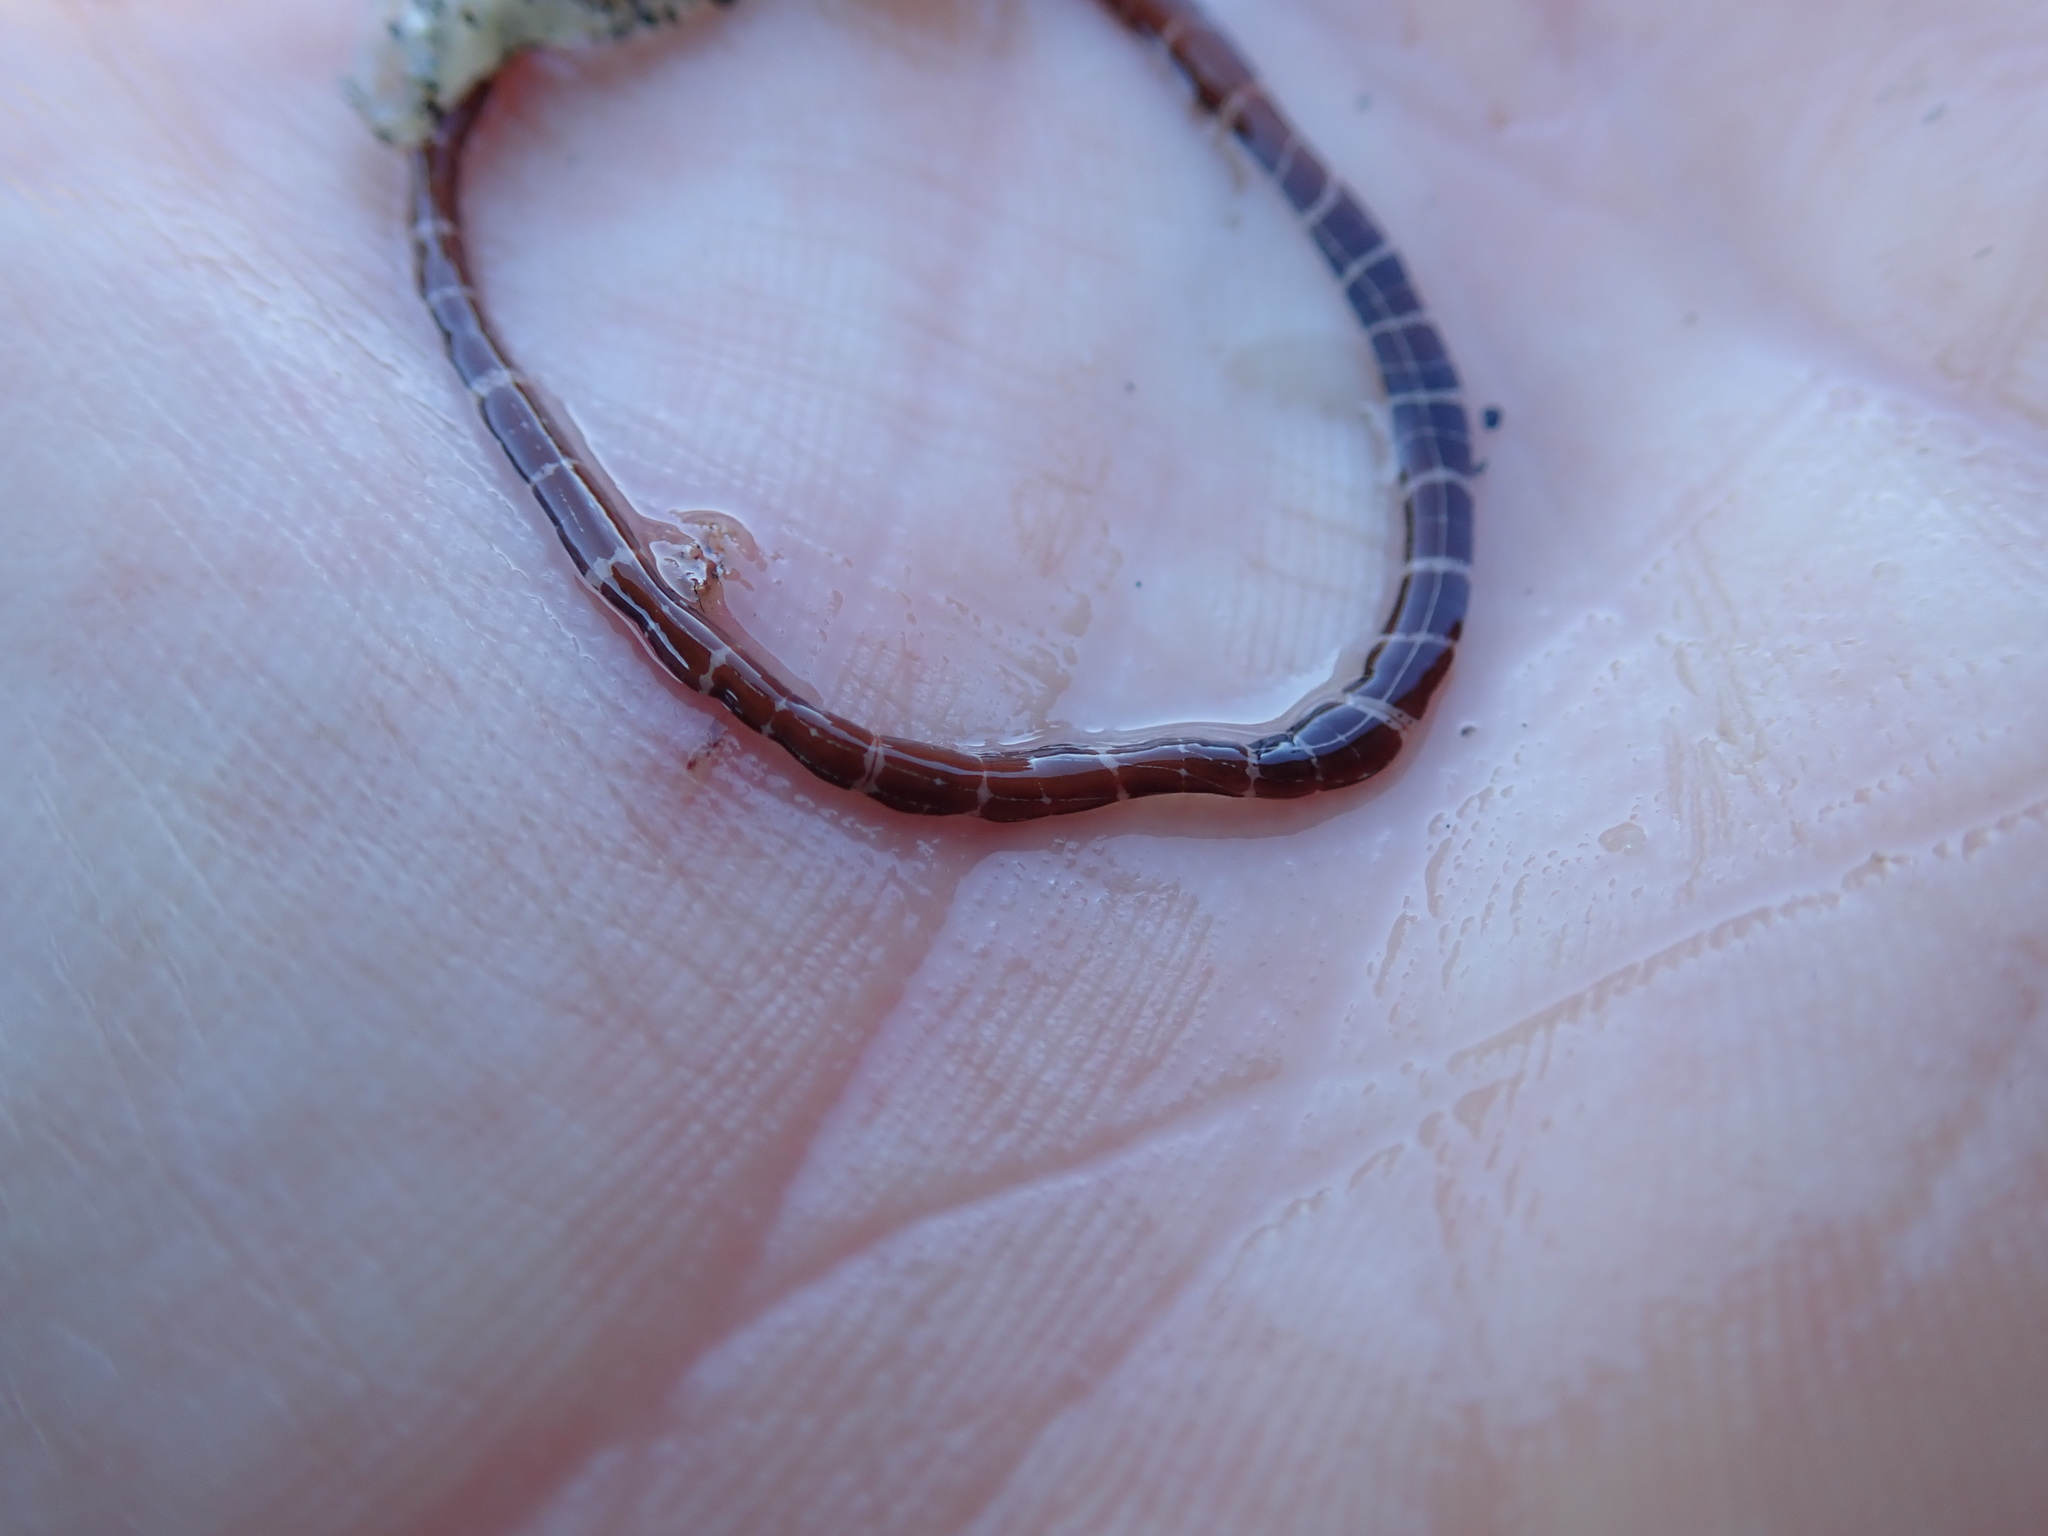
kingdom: Animalia
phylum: Nemertea
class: Palaeonemertea
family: Tubulanidae
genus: Tubulanus
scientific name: Tubulanus sexlineatus
